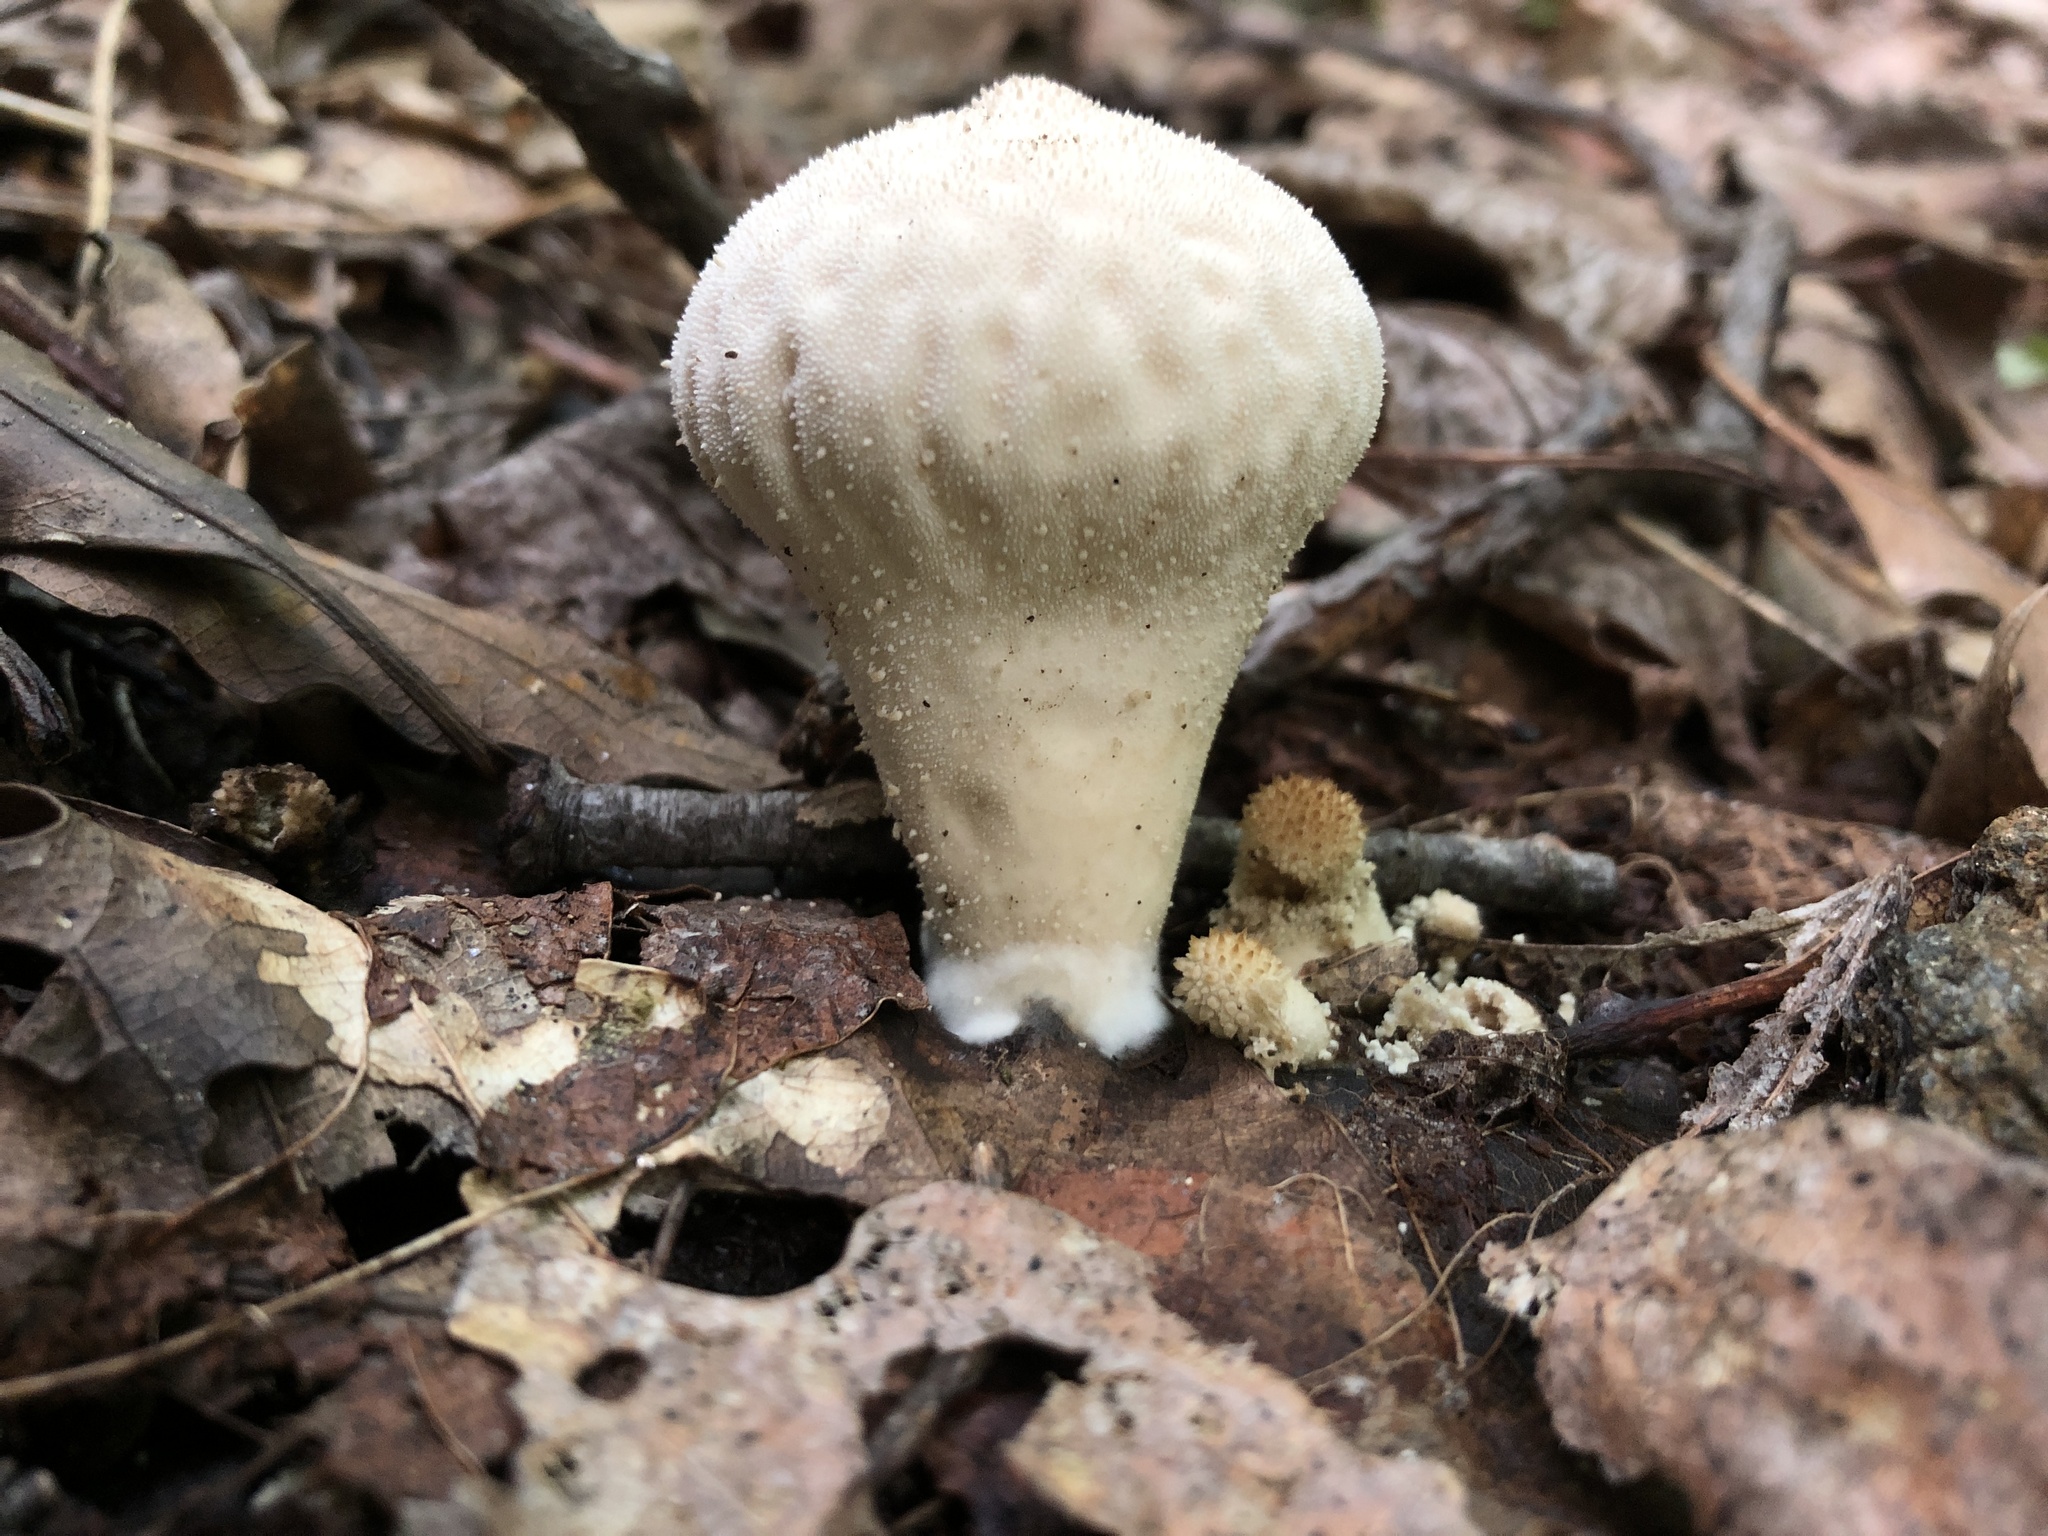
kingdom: Fungi
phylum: Basidiomycota
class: Agaricomycetes
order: Agaricales
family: Lycoperdaceae
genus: Lycoperdon
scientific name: Lycoperdon perlatum
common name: Common puffball
